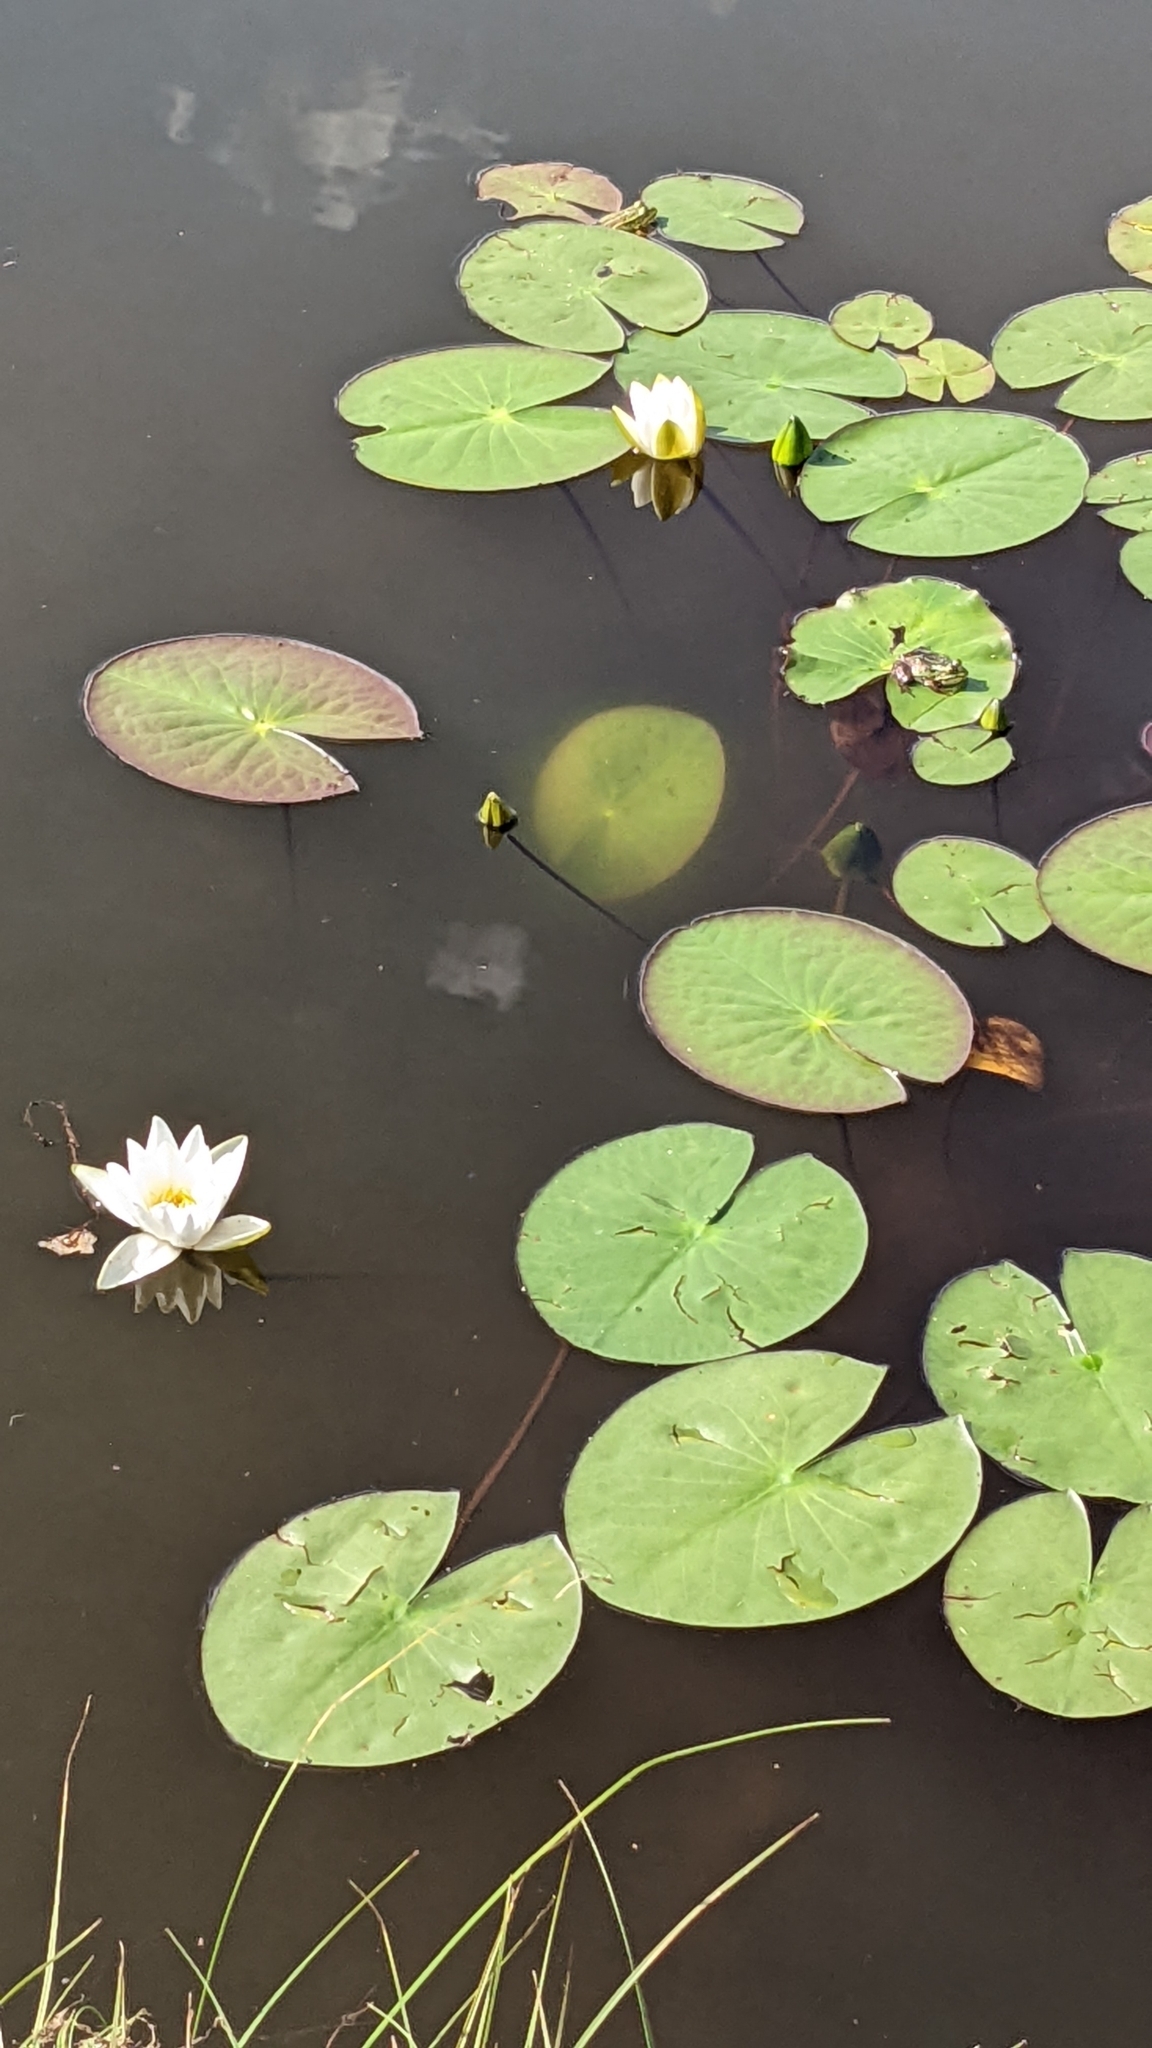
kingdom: Plantae
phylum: Tracheophyta
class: Magnoliopsida
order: Nymphaeales
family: Nymphaeaceae
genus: Nymphaea
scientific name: Nymphaea candida
